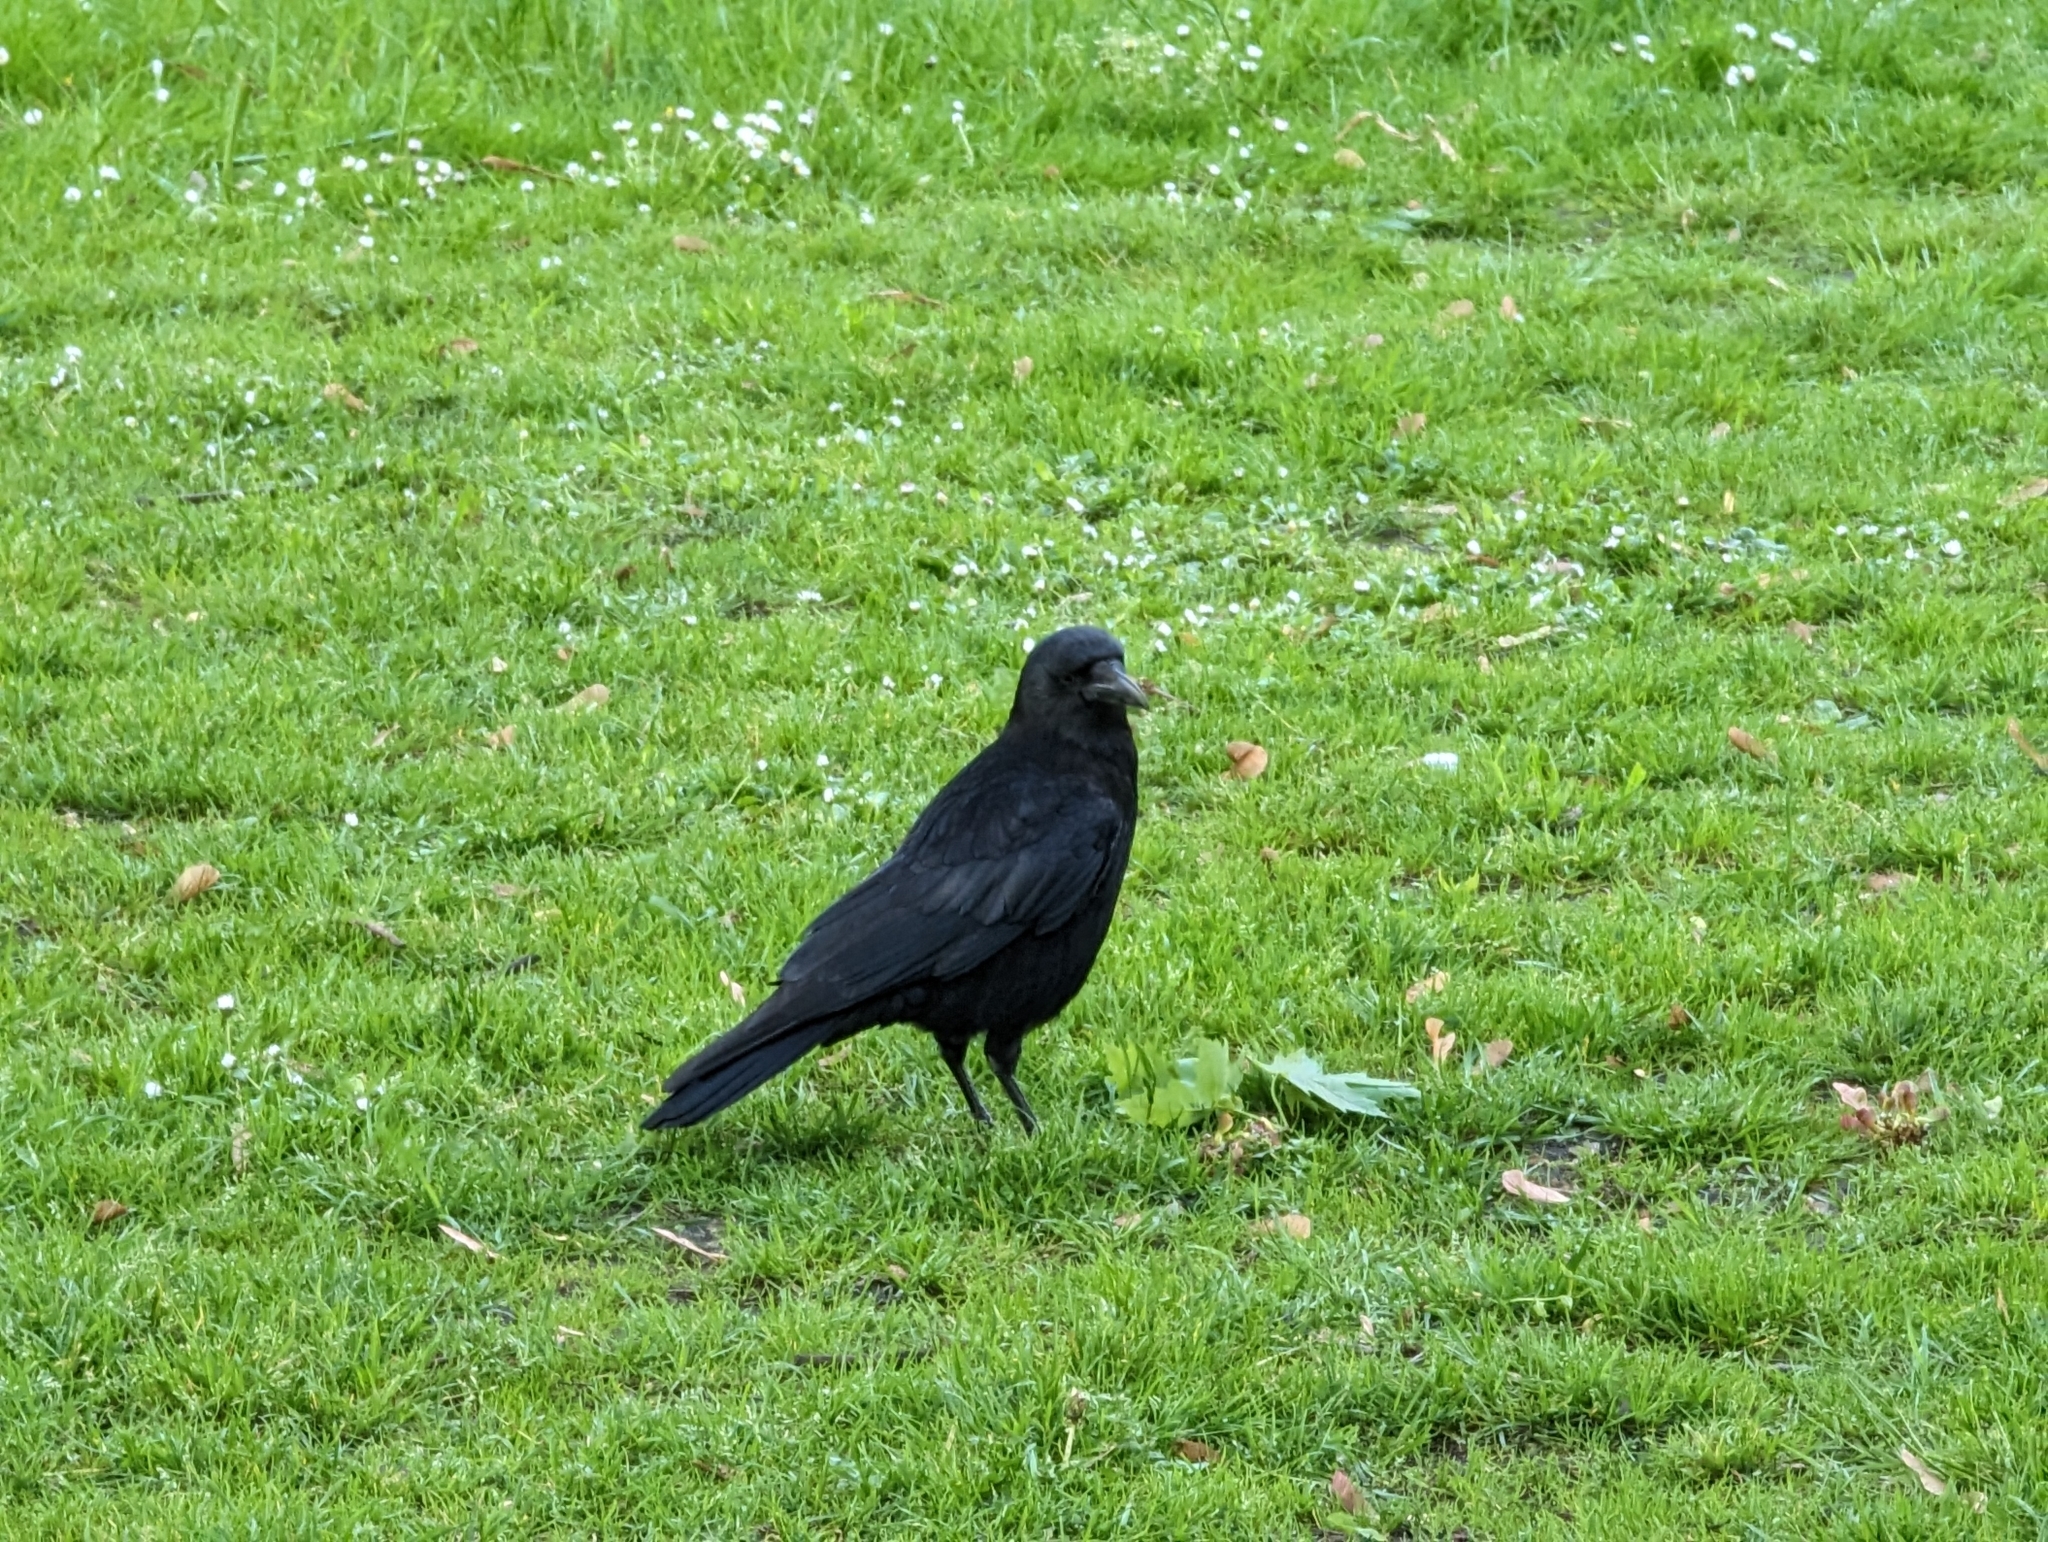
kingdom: Animalia
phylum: Chordata
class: Aves
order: Passeriformes
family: Corvidae
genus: Corvus
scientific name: Corvus corone
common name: Carrion crow
